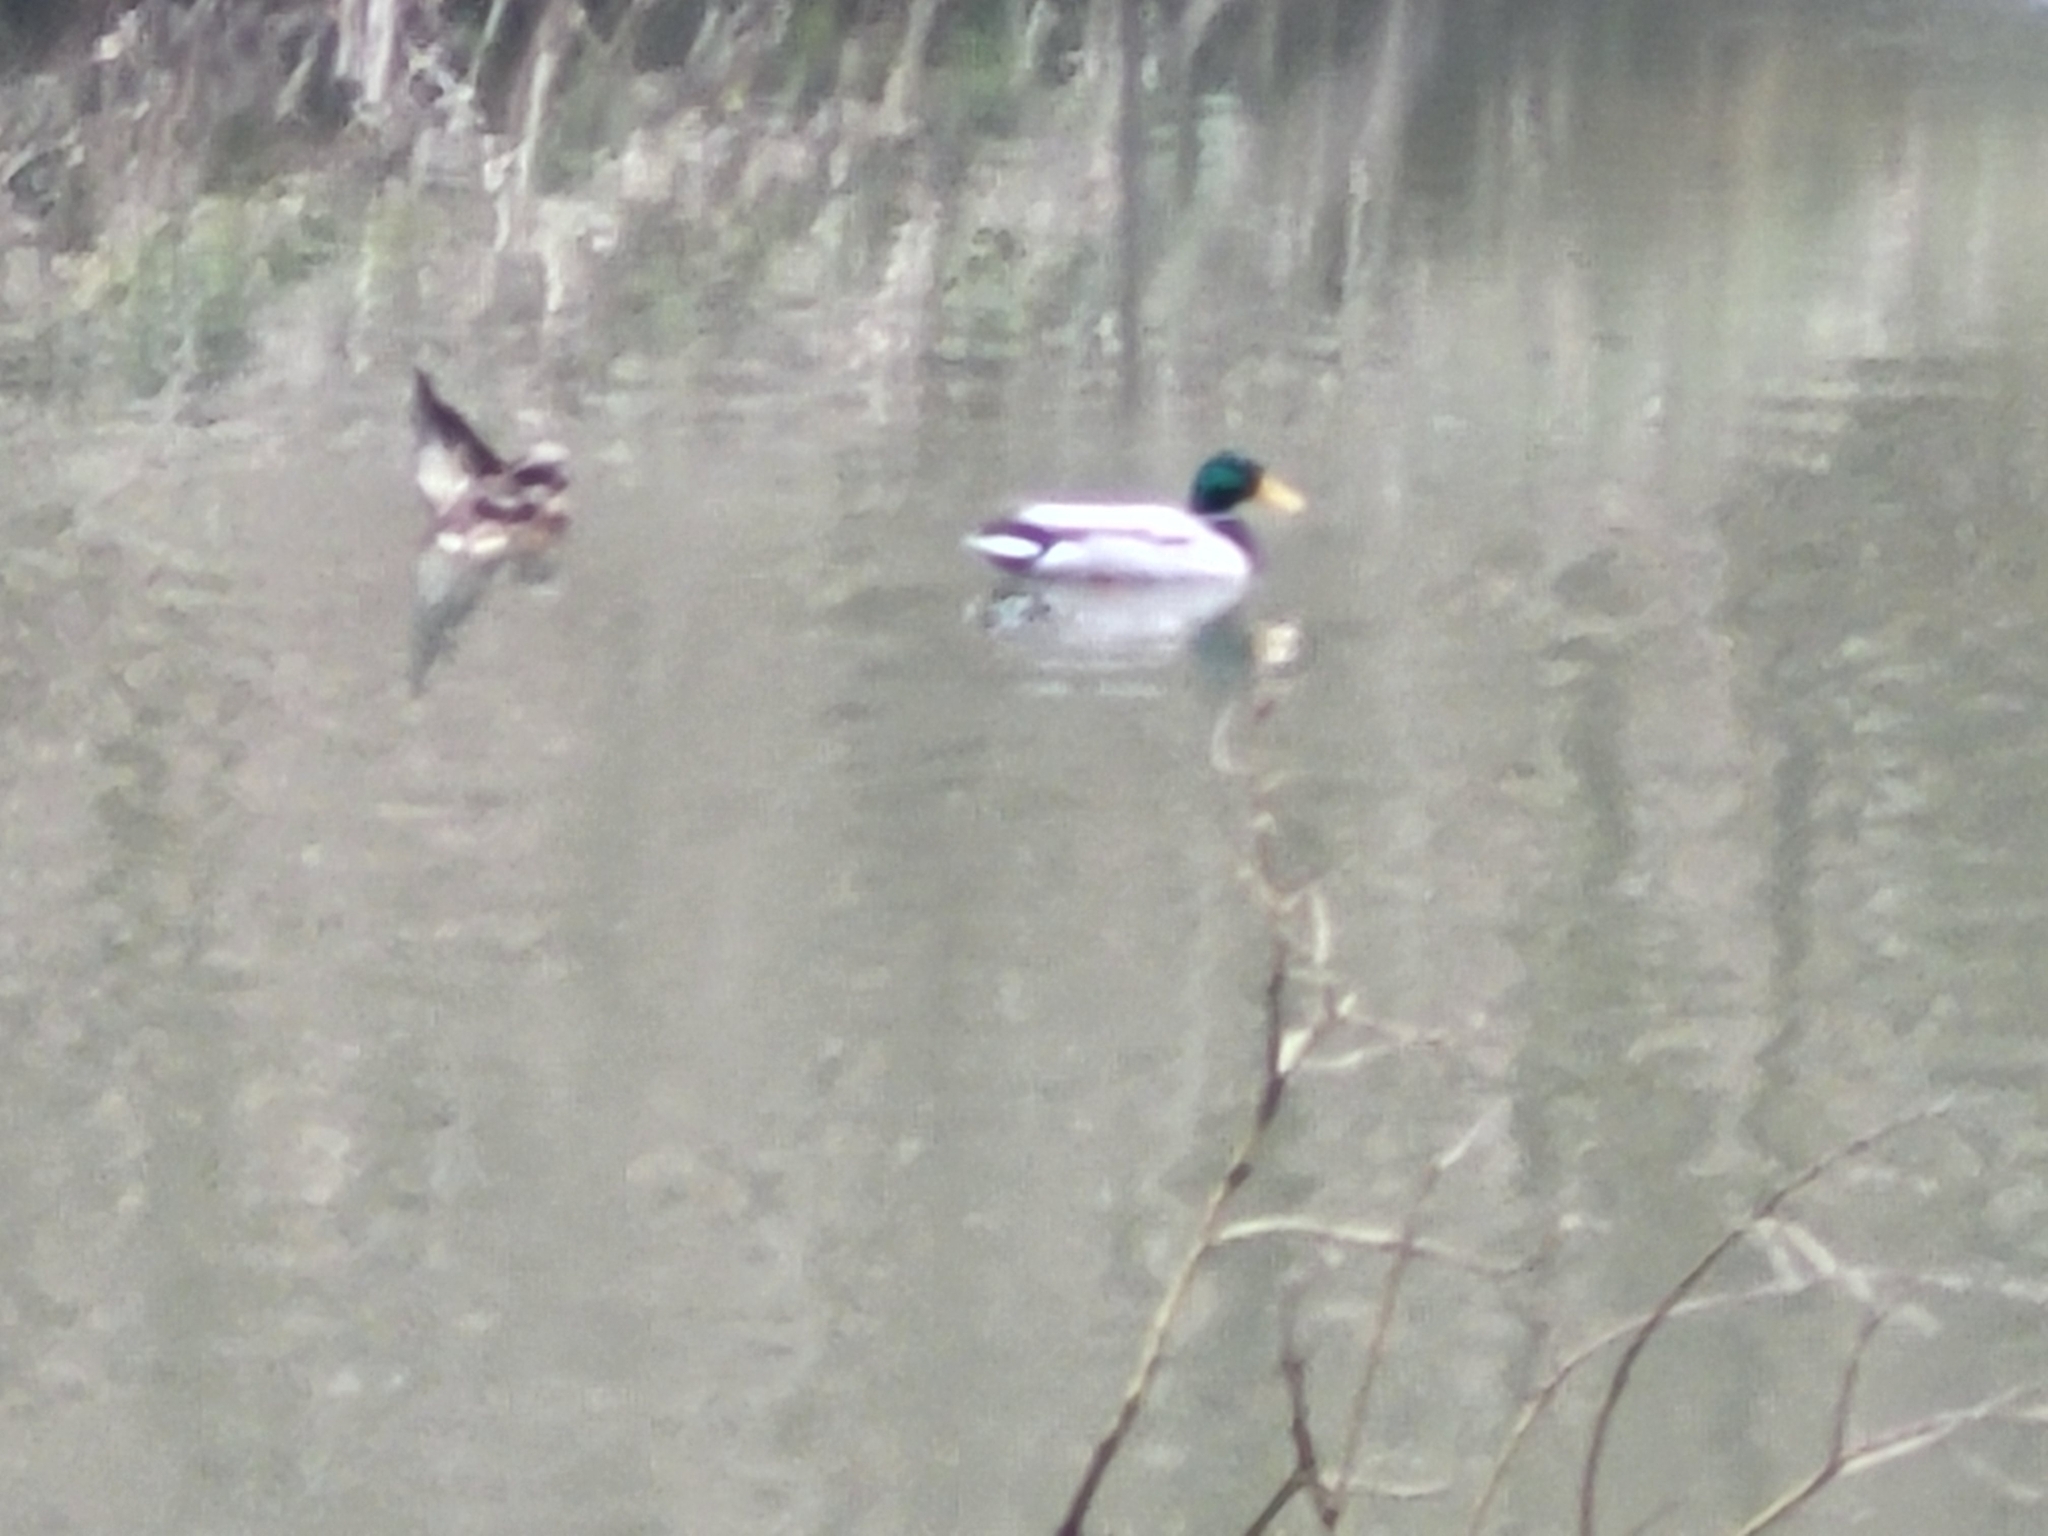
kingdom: Animalia
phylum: Chordata
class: Aves
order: Anseriformes
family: Anatidae
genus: Anas
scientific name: Anas platyrhynchos
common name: Mallard
